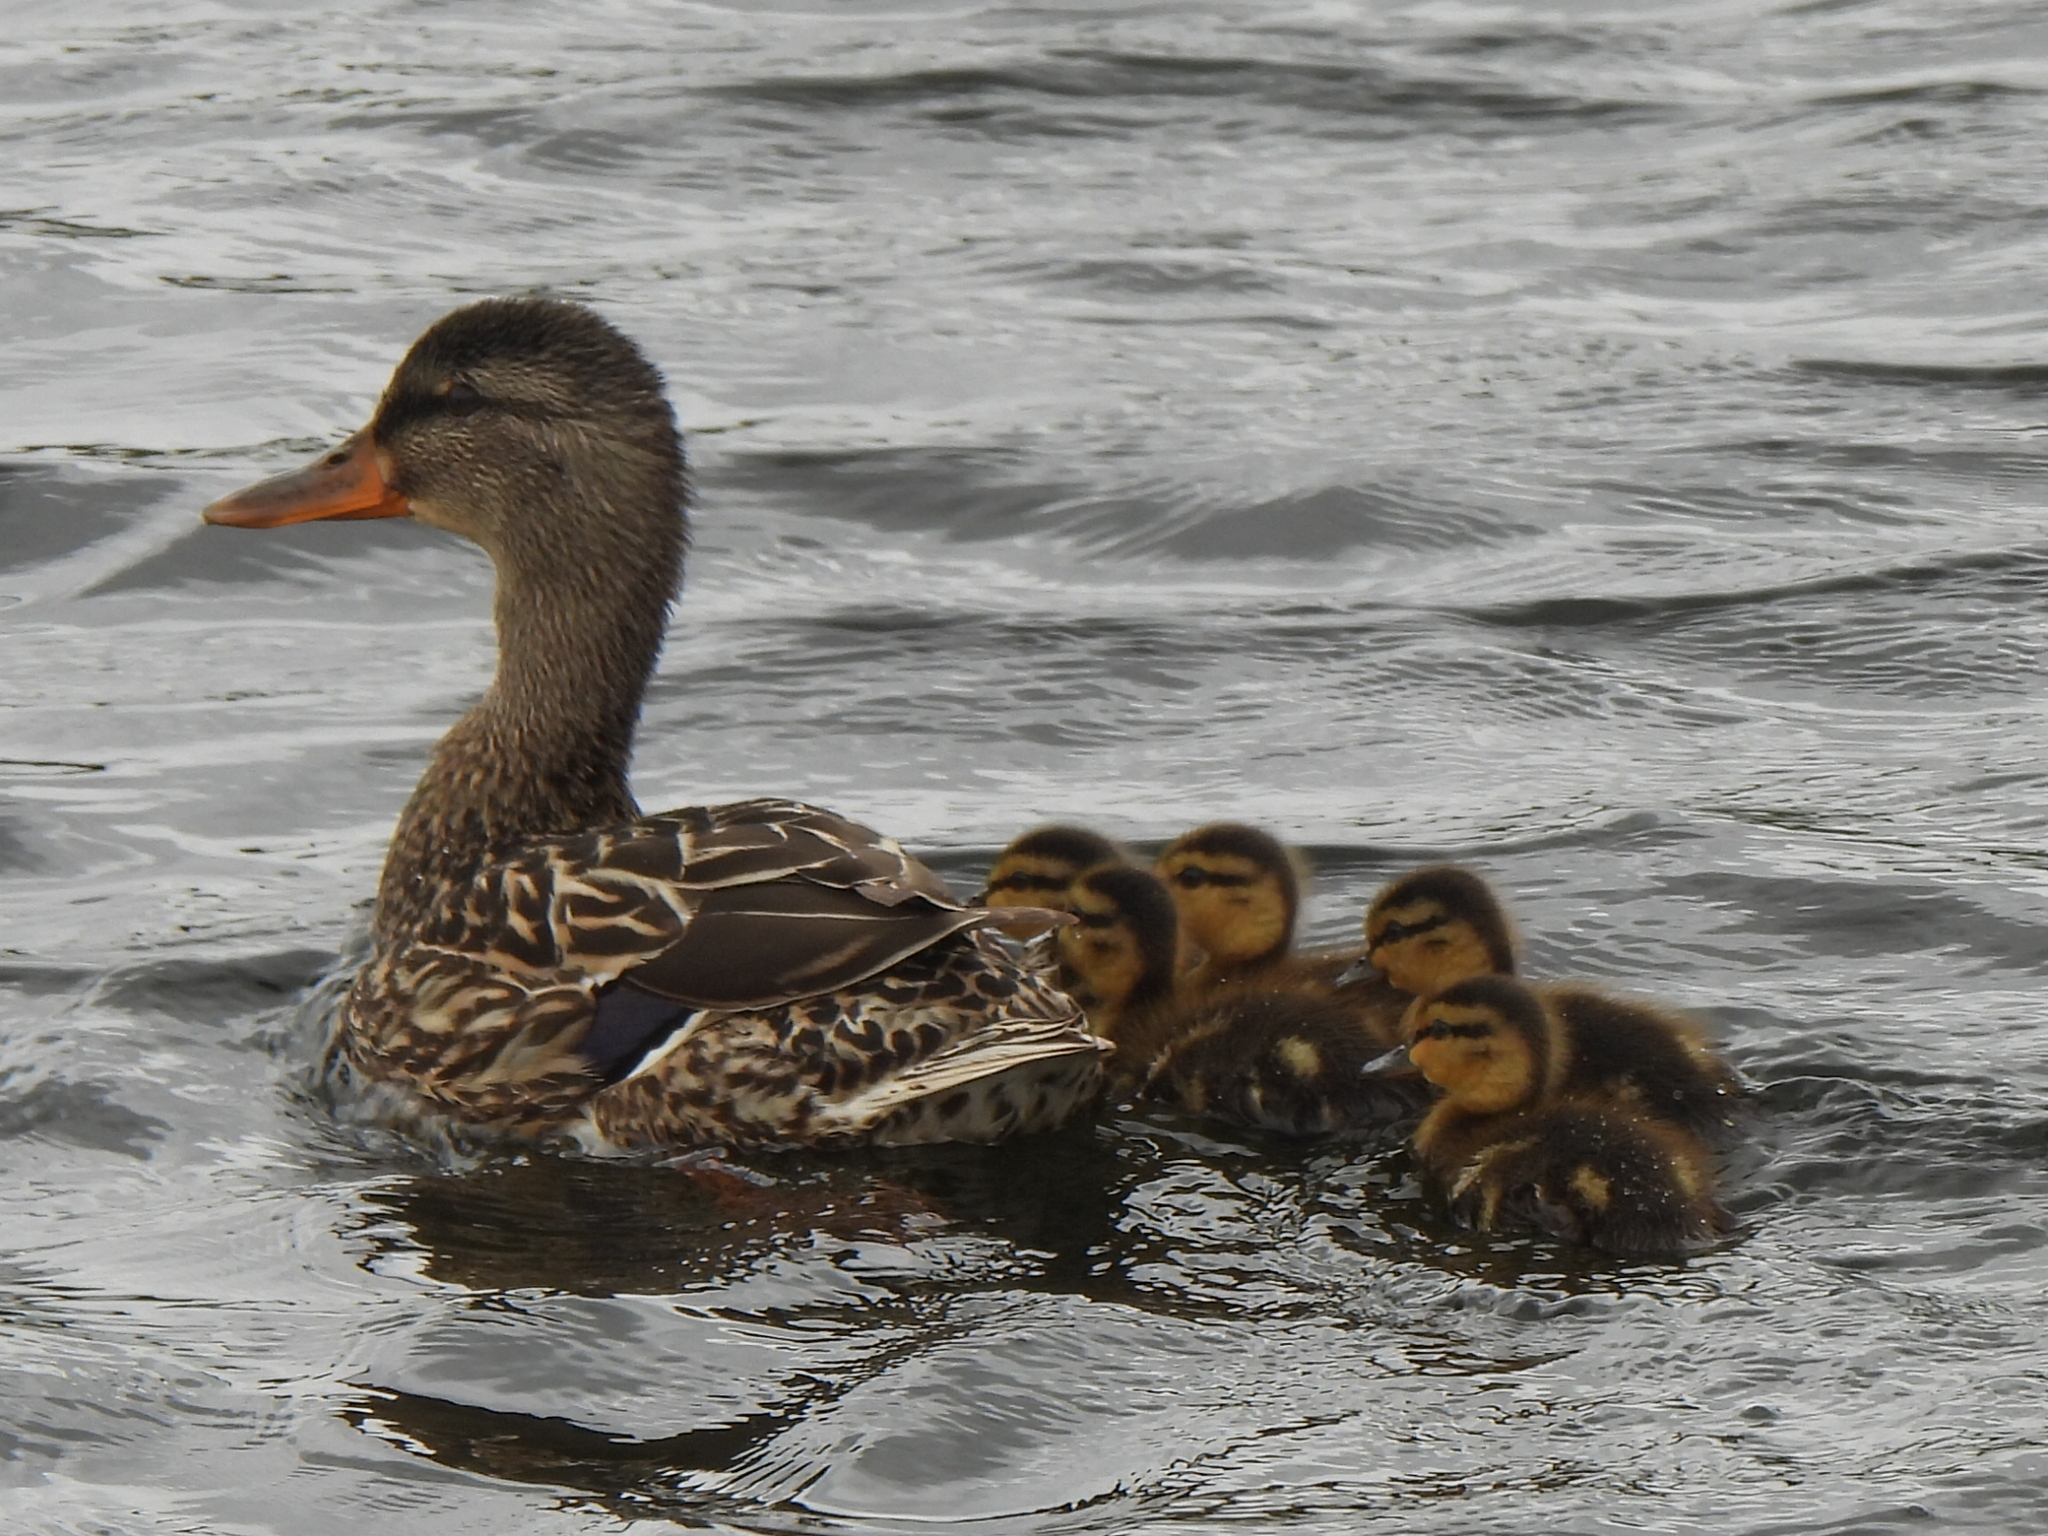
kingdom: Animalia
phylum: Chordata
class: Aves
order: Anseriformes
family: Anatidae
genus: Anas
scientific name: Anas platyrhynchos
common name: Mallard
